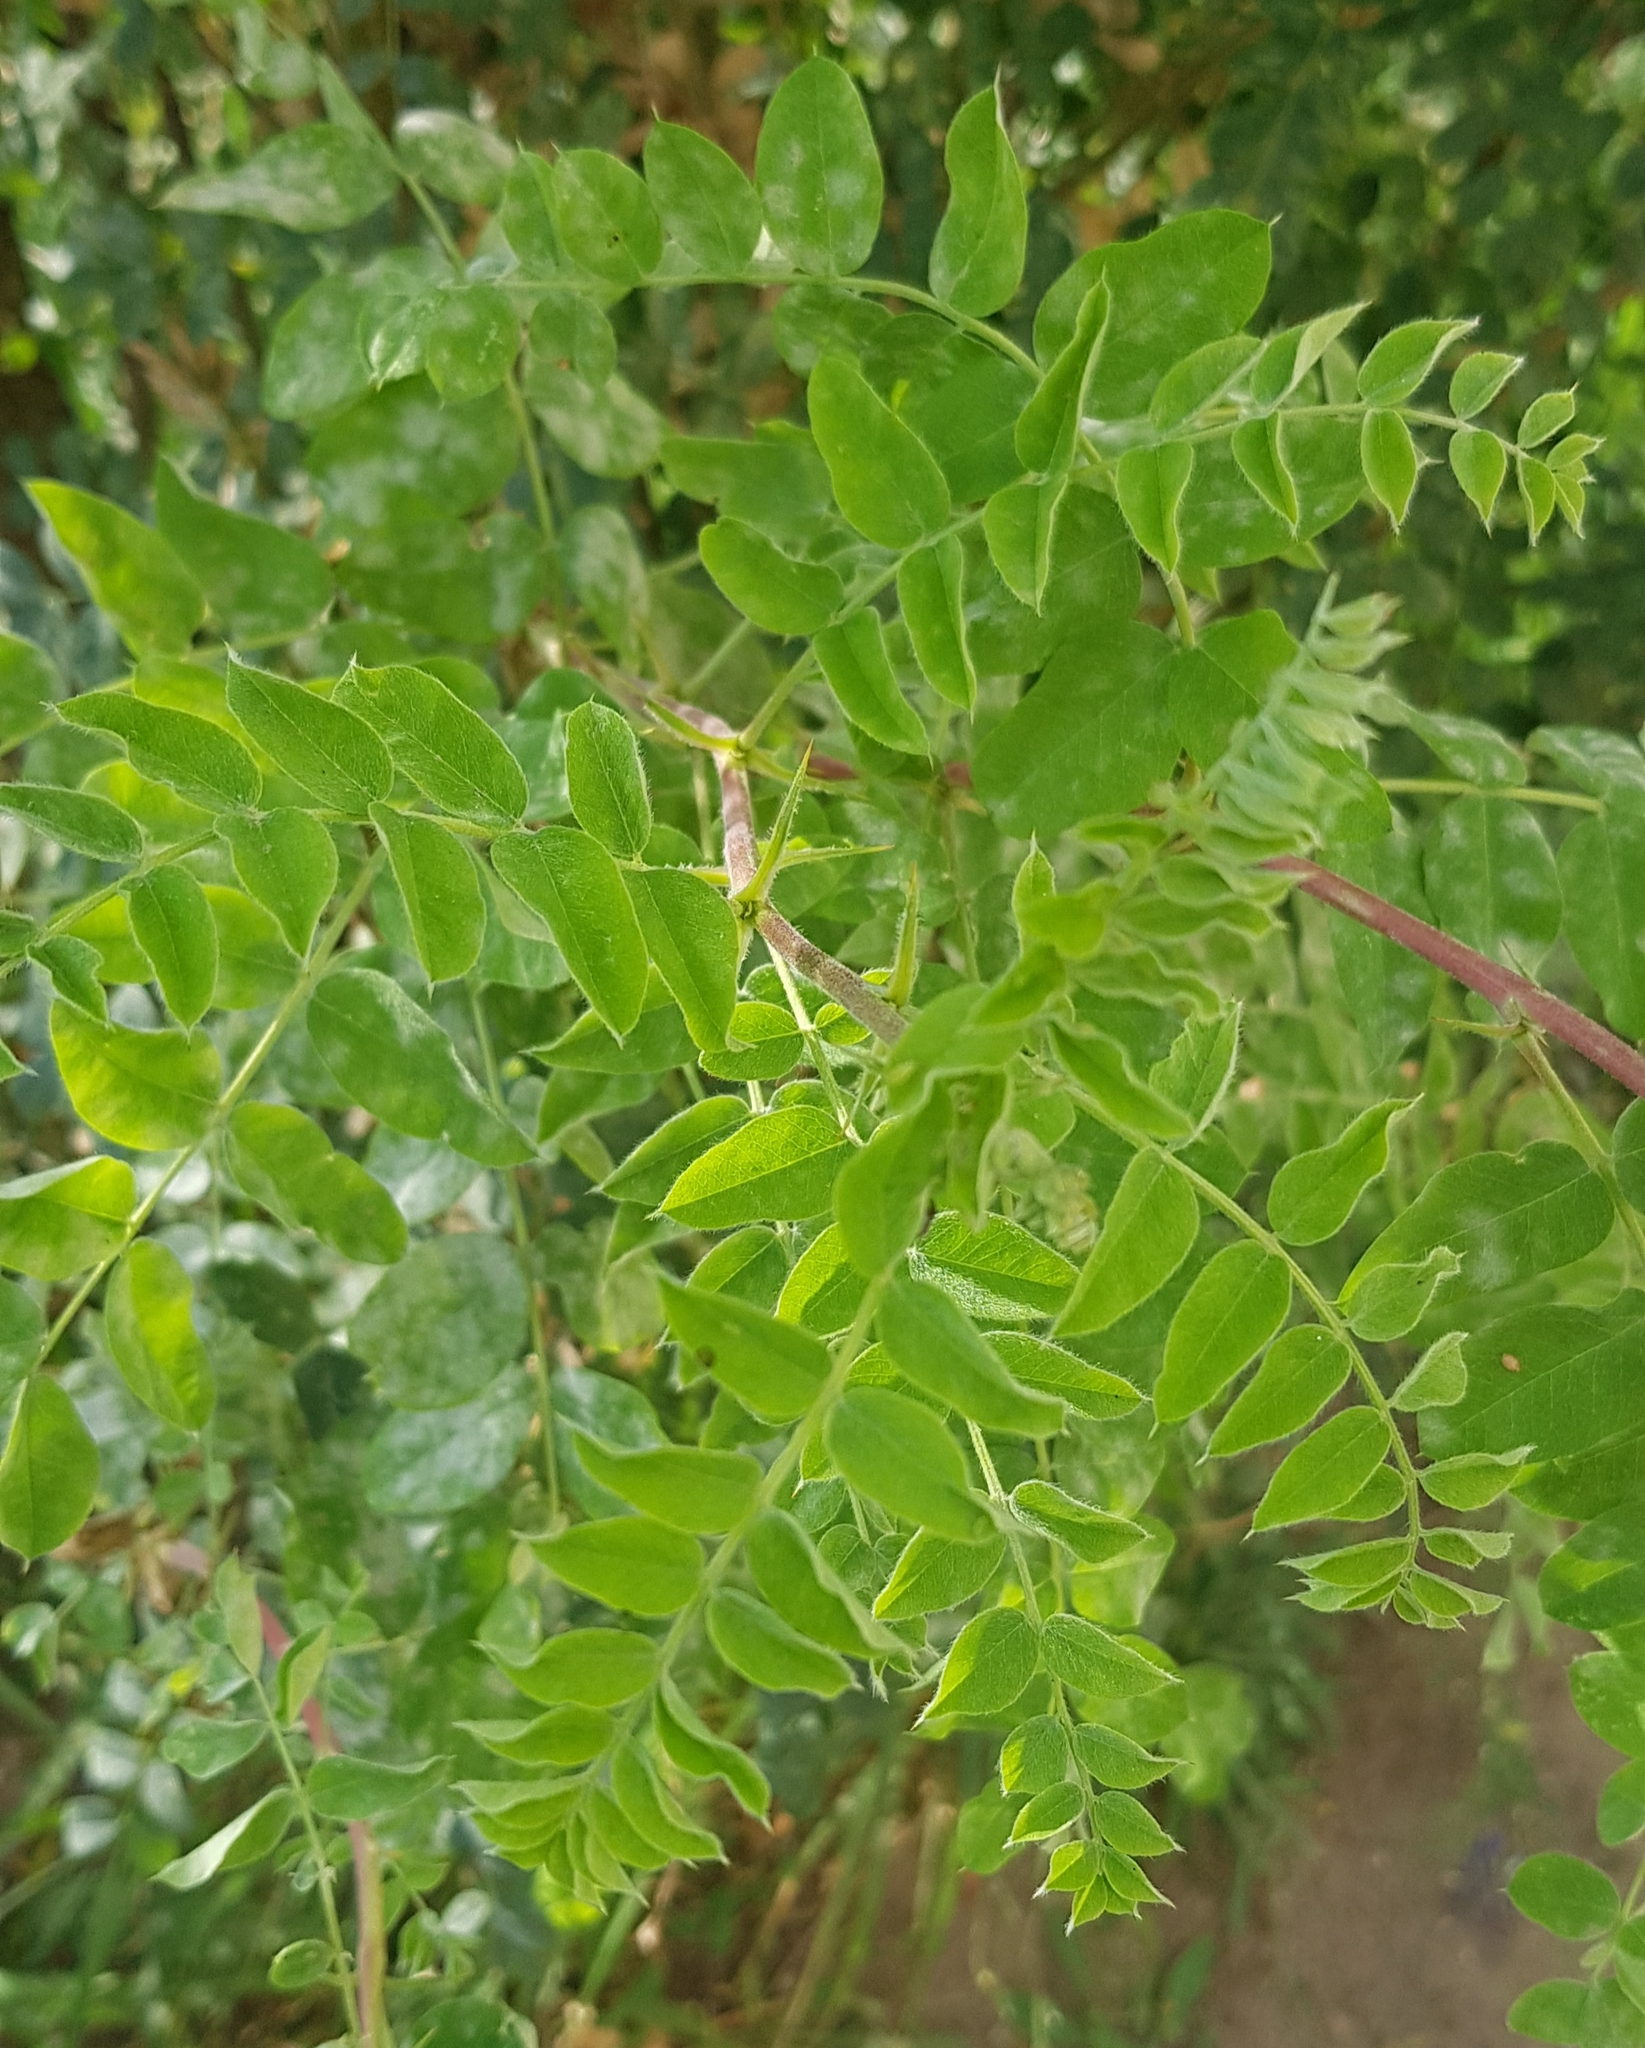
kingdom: Plantae
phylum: Tracheophyta
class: Magnoliopsida
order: Fabales
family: Fabaceae
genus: Caragana
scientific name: Caragana arborescens
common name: Siberian peashrub
